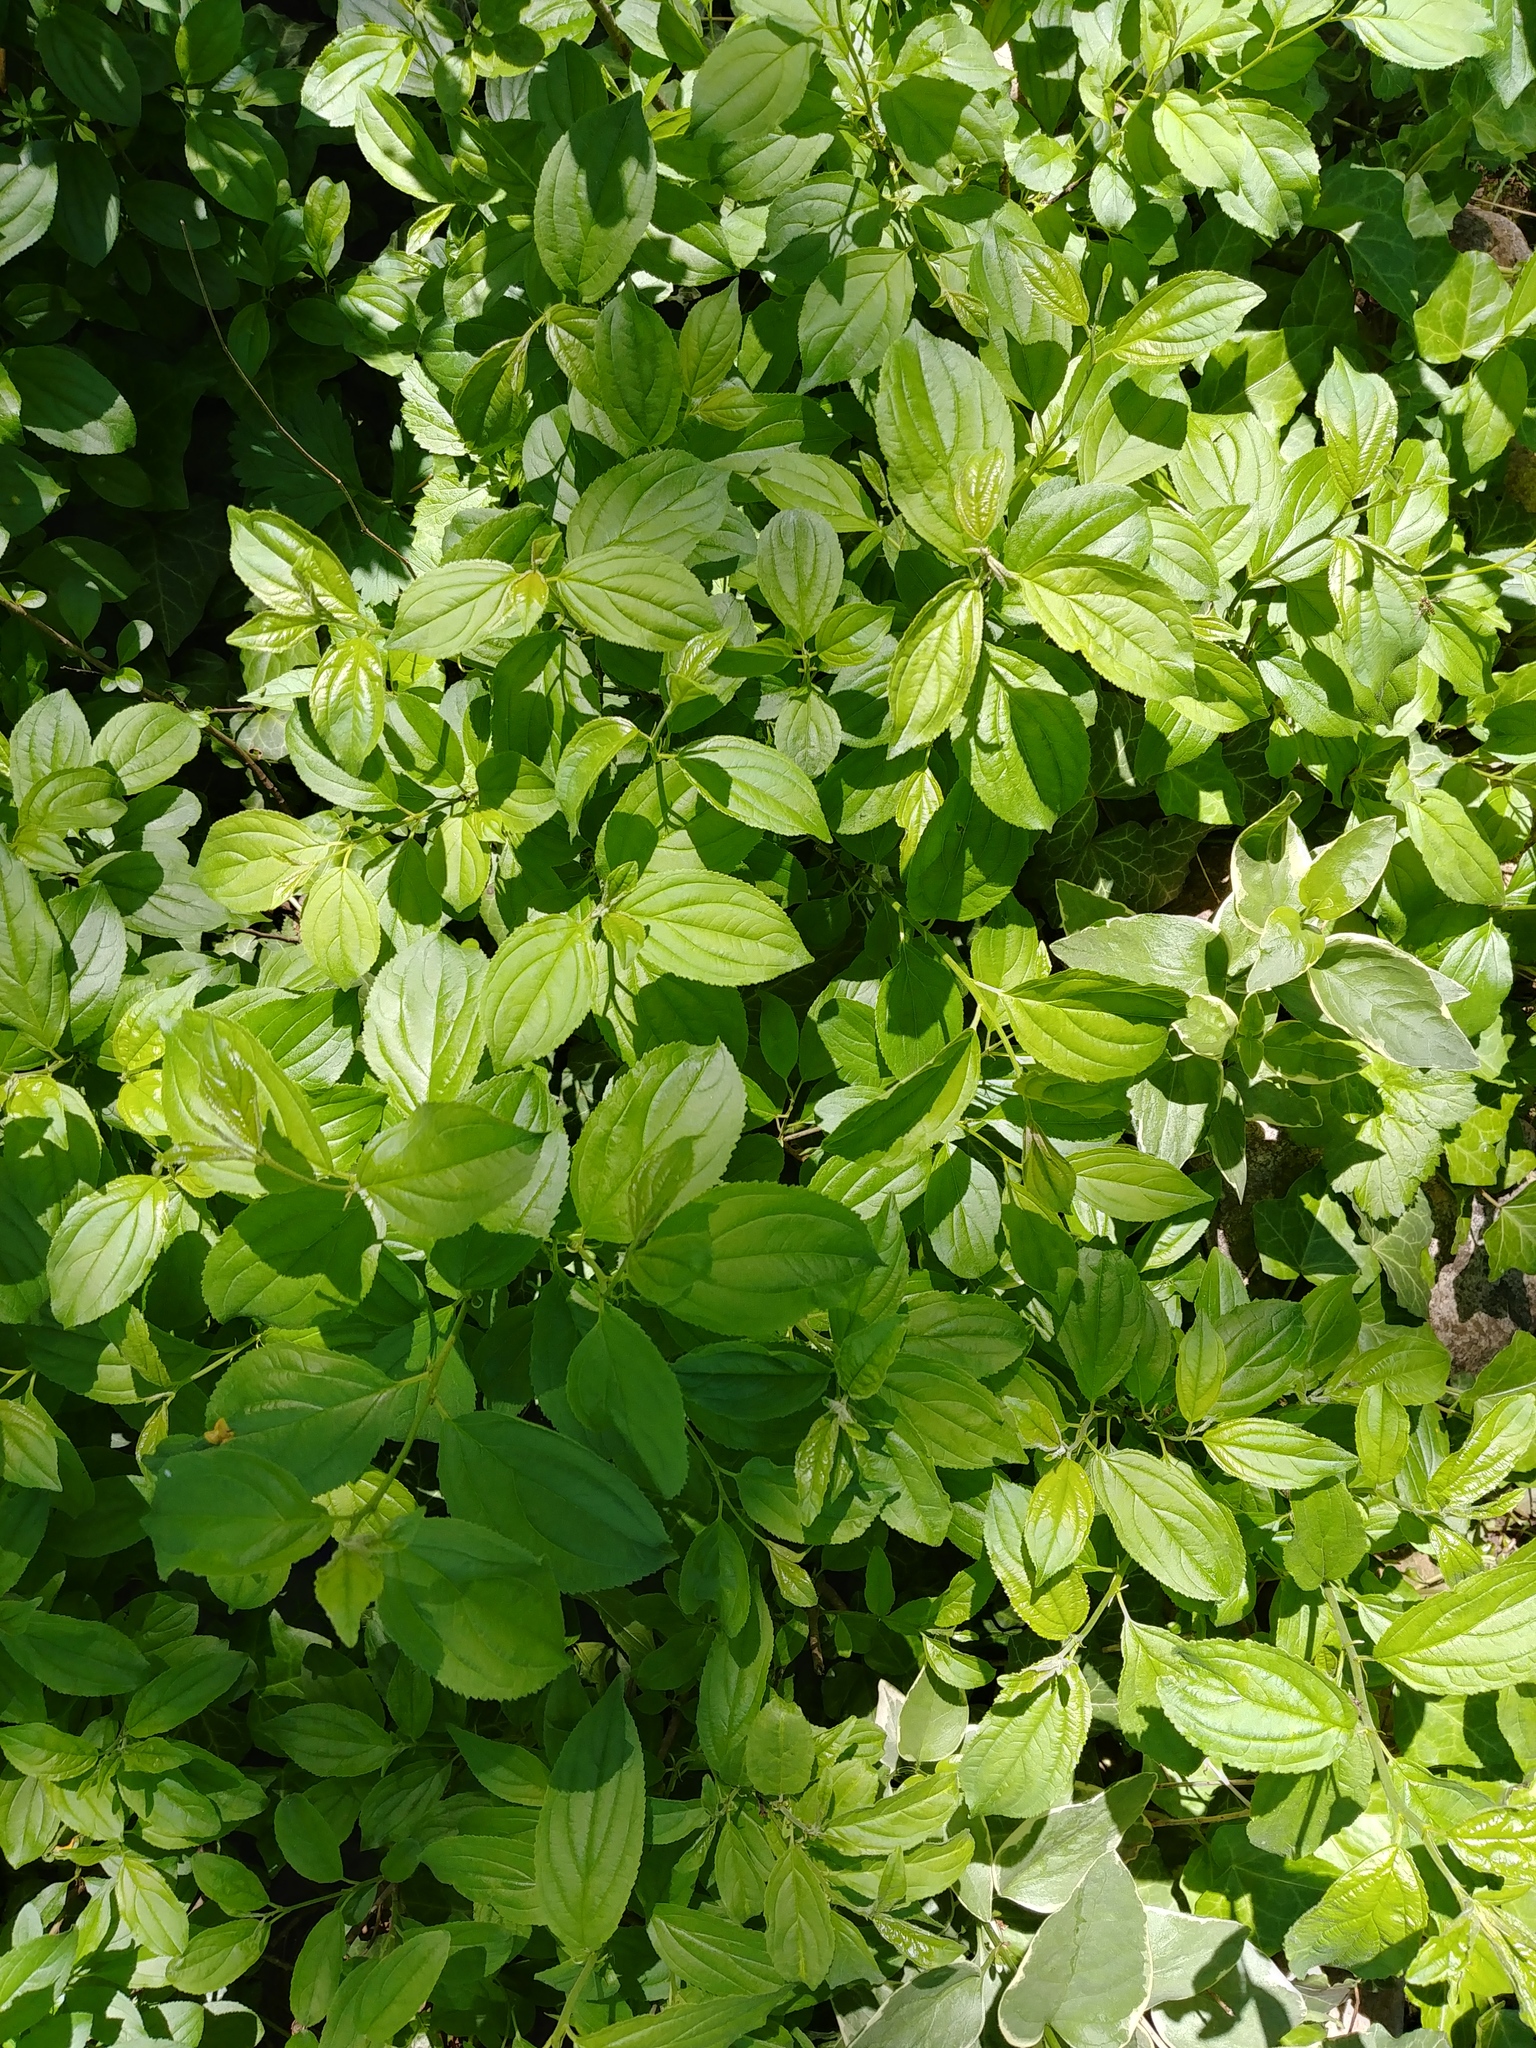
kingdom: Plantae
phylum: Tracheophyta
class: Magnoliopsida
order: Rosales
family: Rhamnaceae
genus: Rhamnus
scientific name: Rhamnus cathartica
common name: Common buckthorn
